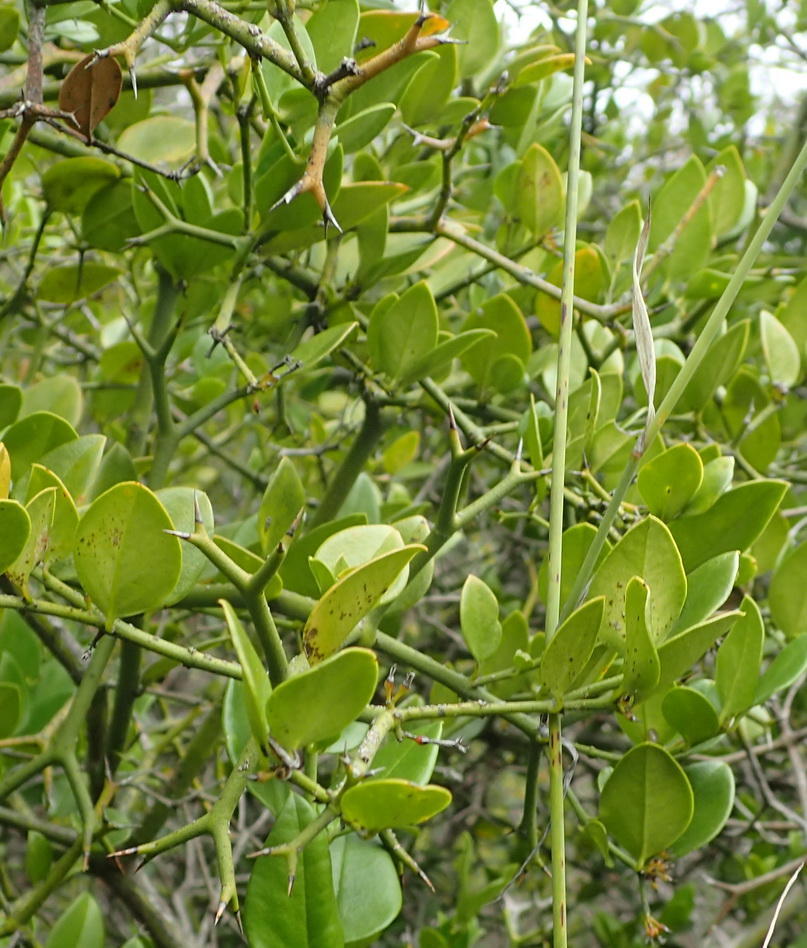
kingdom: Plantae
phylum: Tracheophyta
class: Magnoliopsida
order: Gentianales
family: Apocynaceae
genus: Carissa
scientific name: Carissa bispinosa
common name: Forest num-num
